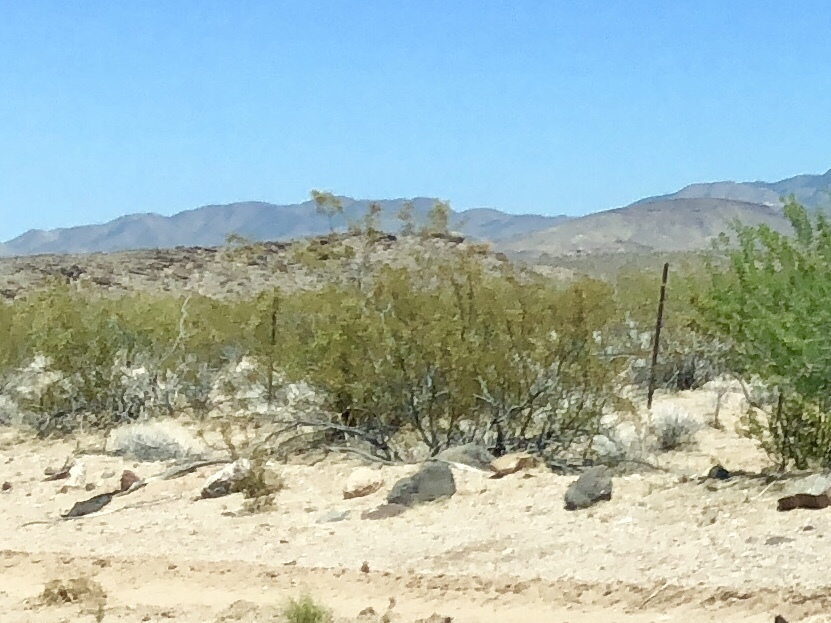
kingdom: Plantae
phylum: Tracheophyta
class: Magnoliopsida
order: Zygophyllales
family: Zygophyllaceae
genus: Larrea
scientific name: Larrea tridentata
